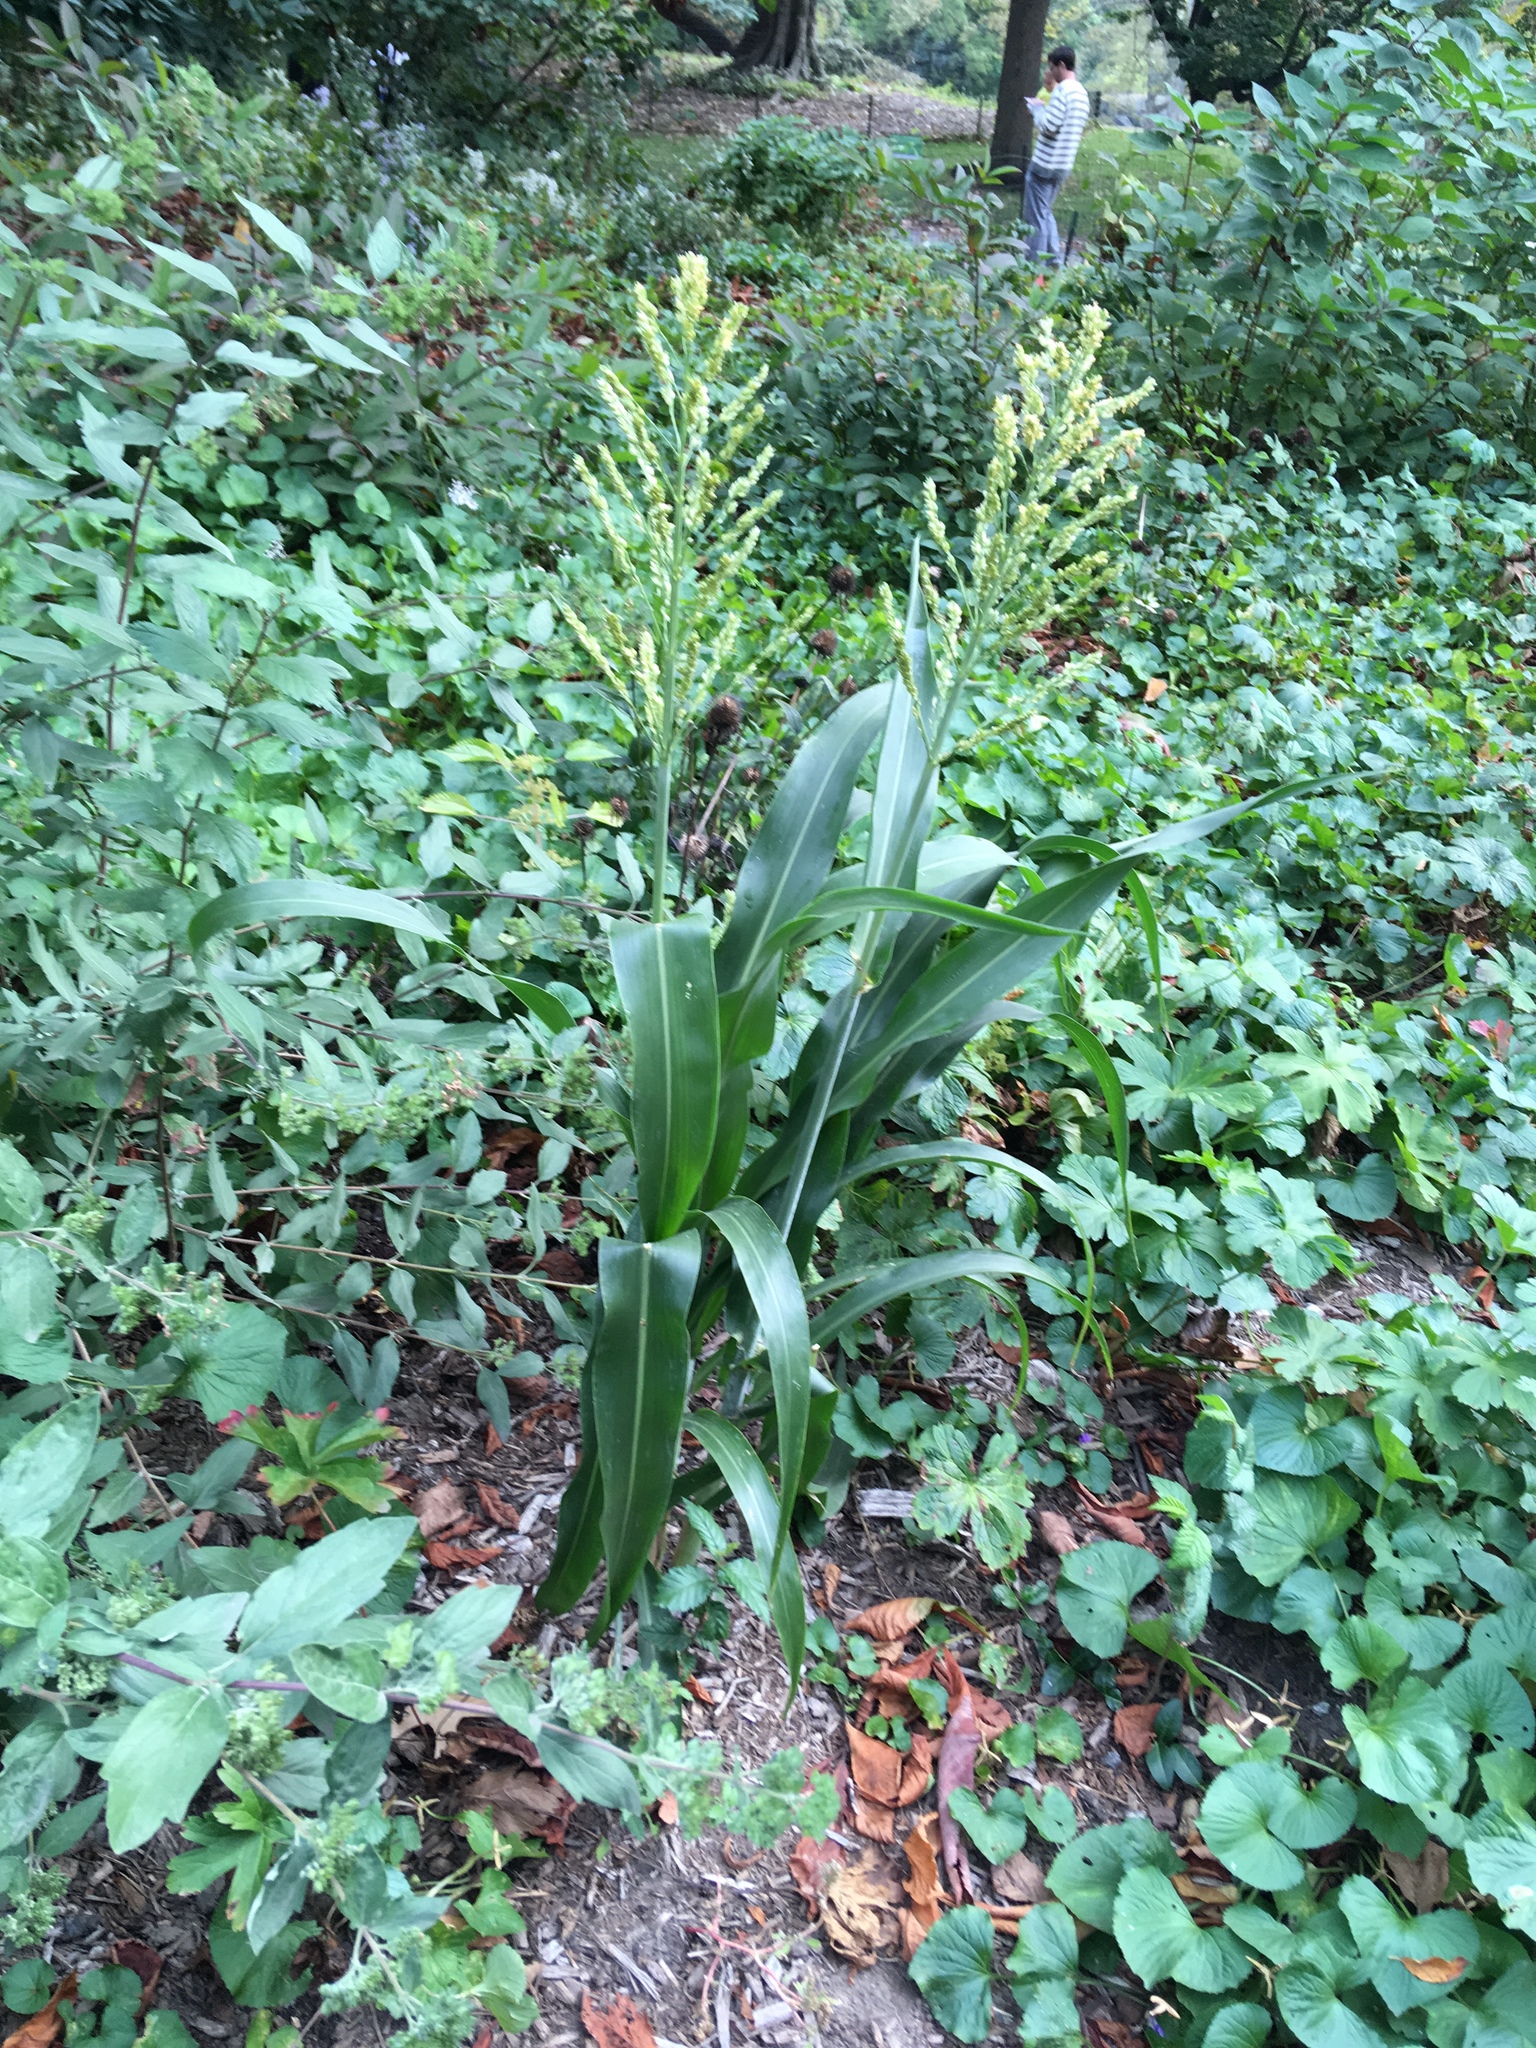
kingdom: Plantae
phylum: Tracheophyta
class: Liliopsida
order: Poales
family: Poaceae
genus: Sorghum
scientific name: Sorghum bicolor
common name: Sorghum
